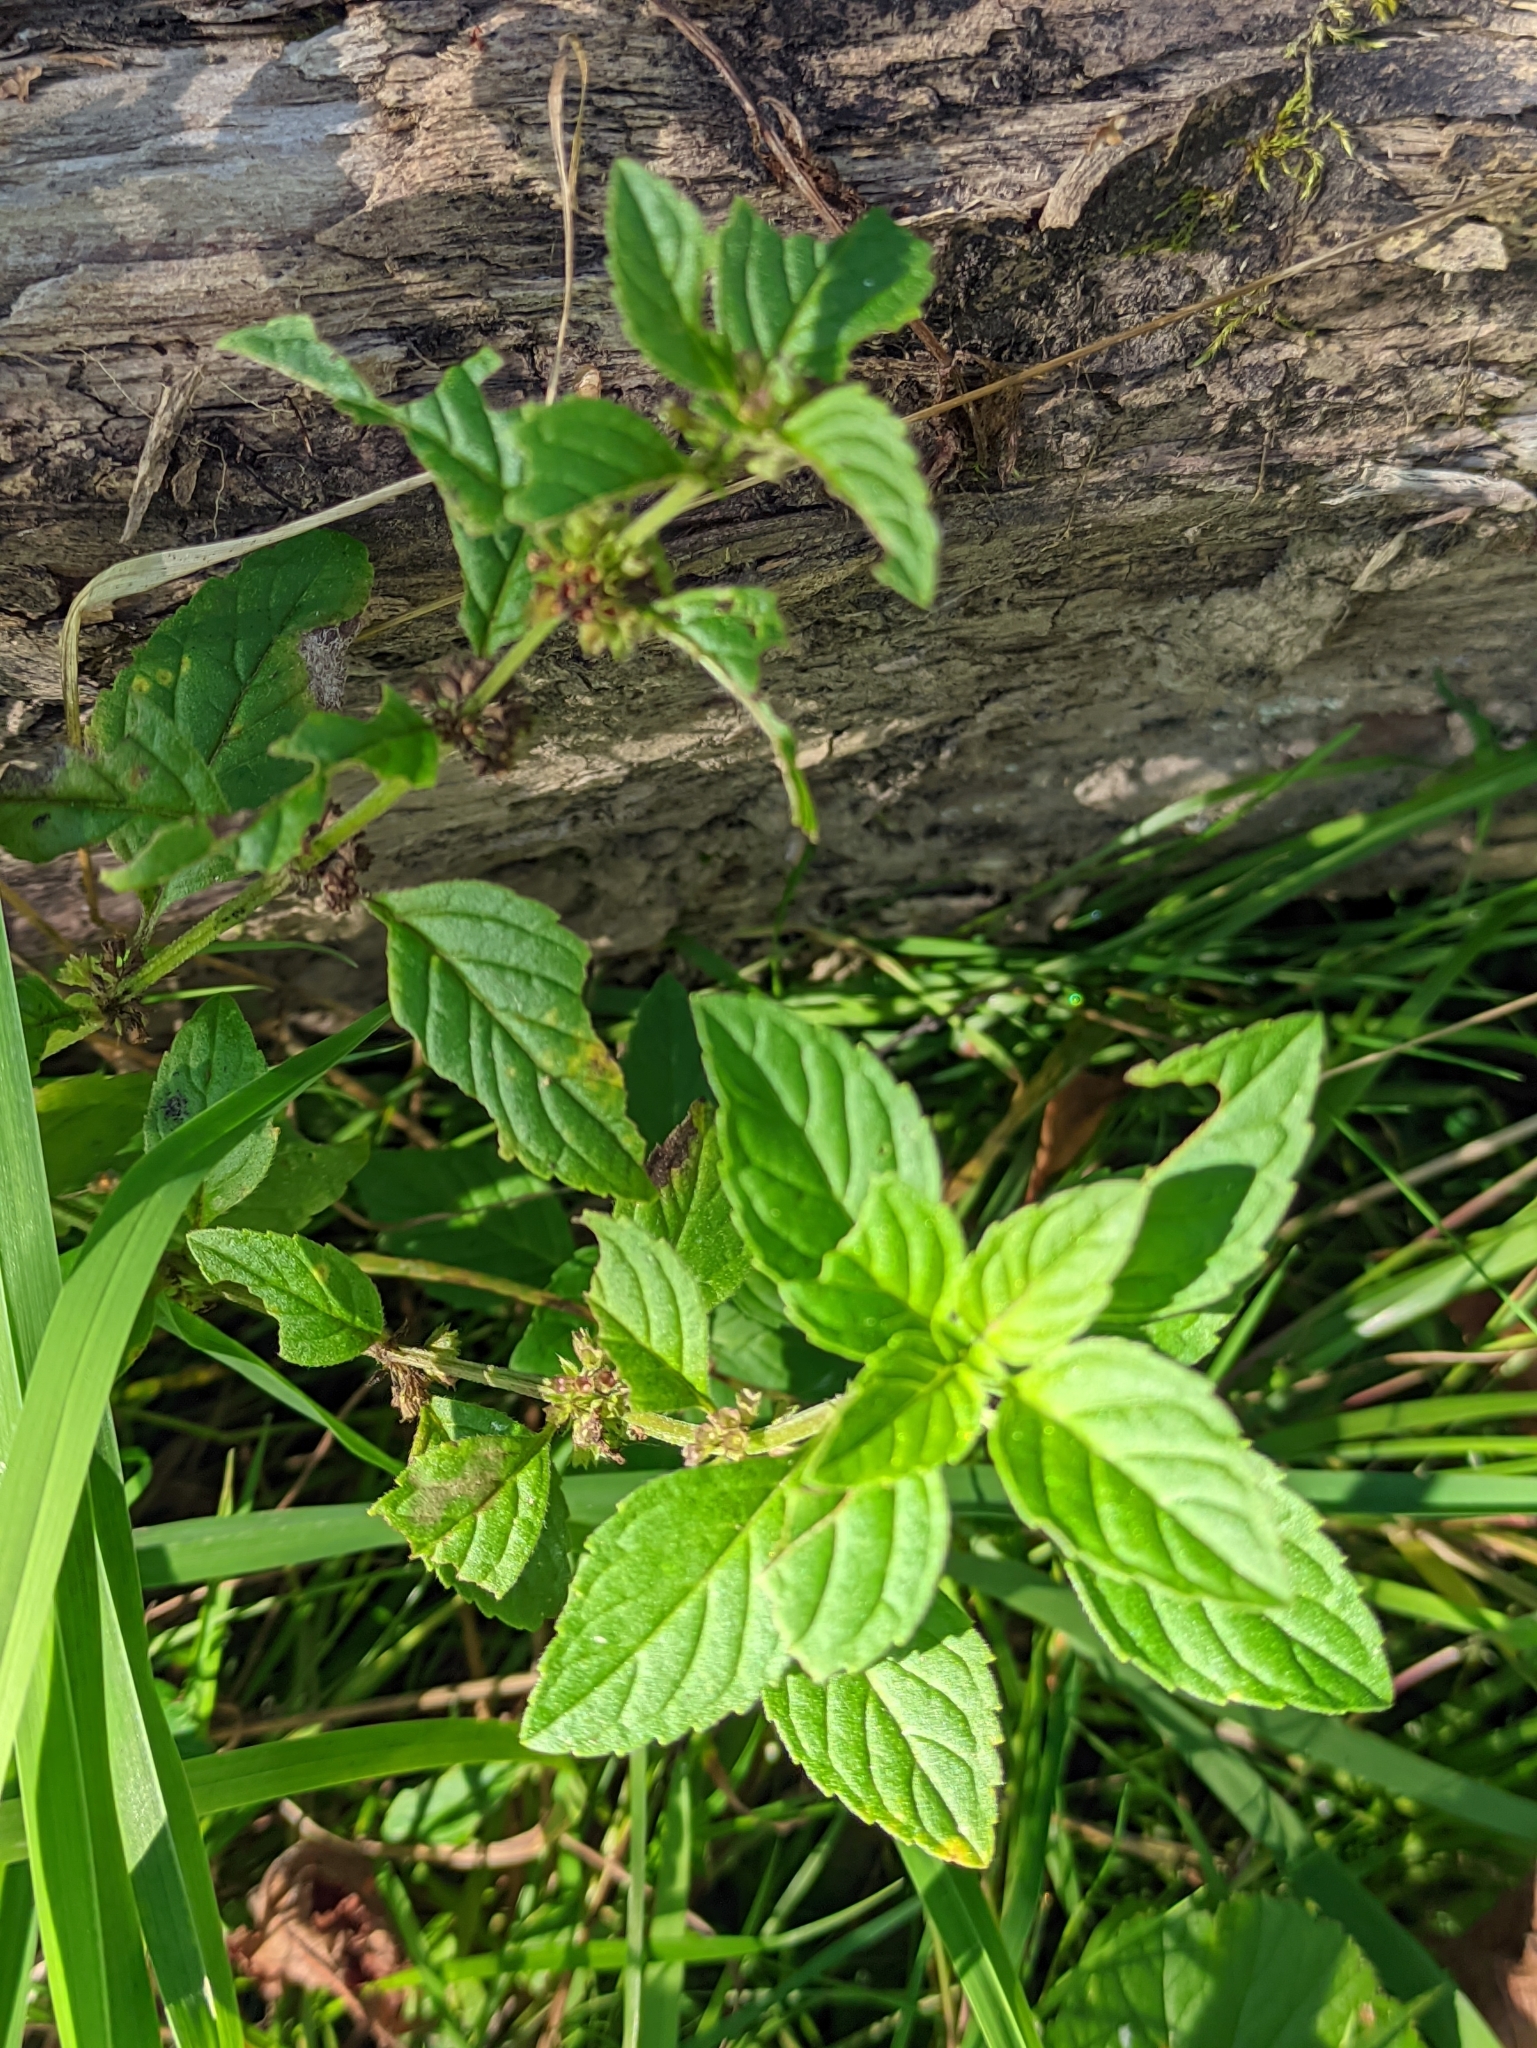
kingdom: Plantae
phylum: Tracheophyta
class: Magnoliopsida
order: Lamiales
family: Lamiaceae
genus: Mentha
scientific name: Mentha arvensis
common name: Corn mint
